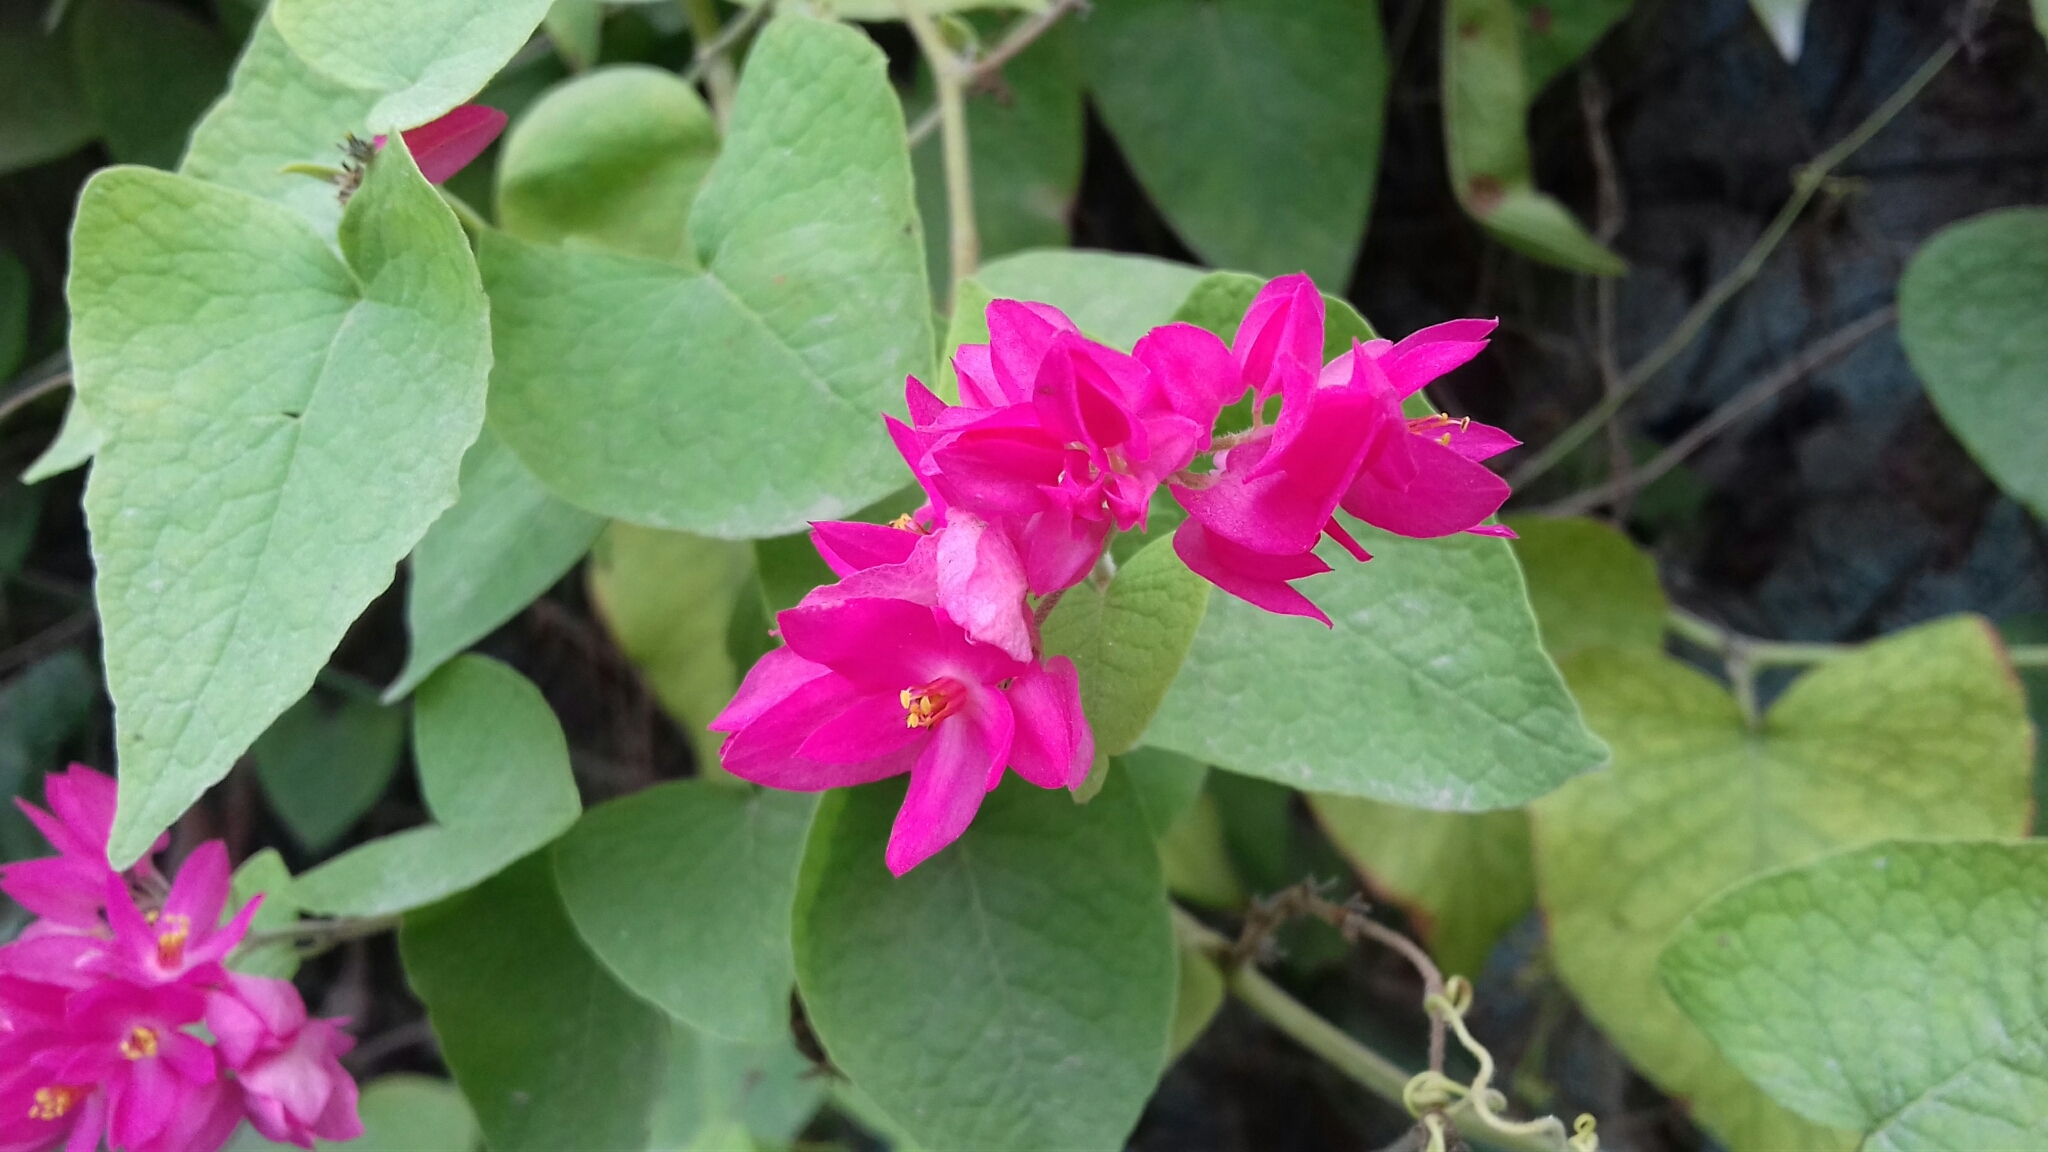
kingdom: Plantae
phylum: Tracheophyta
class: Magnoliopsida
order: Caryophyllales
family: Polygonaceae
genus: Antigonon
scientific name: Antigonon leptopus
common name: Coral vine
